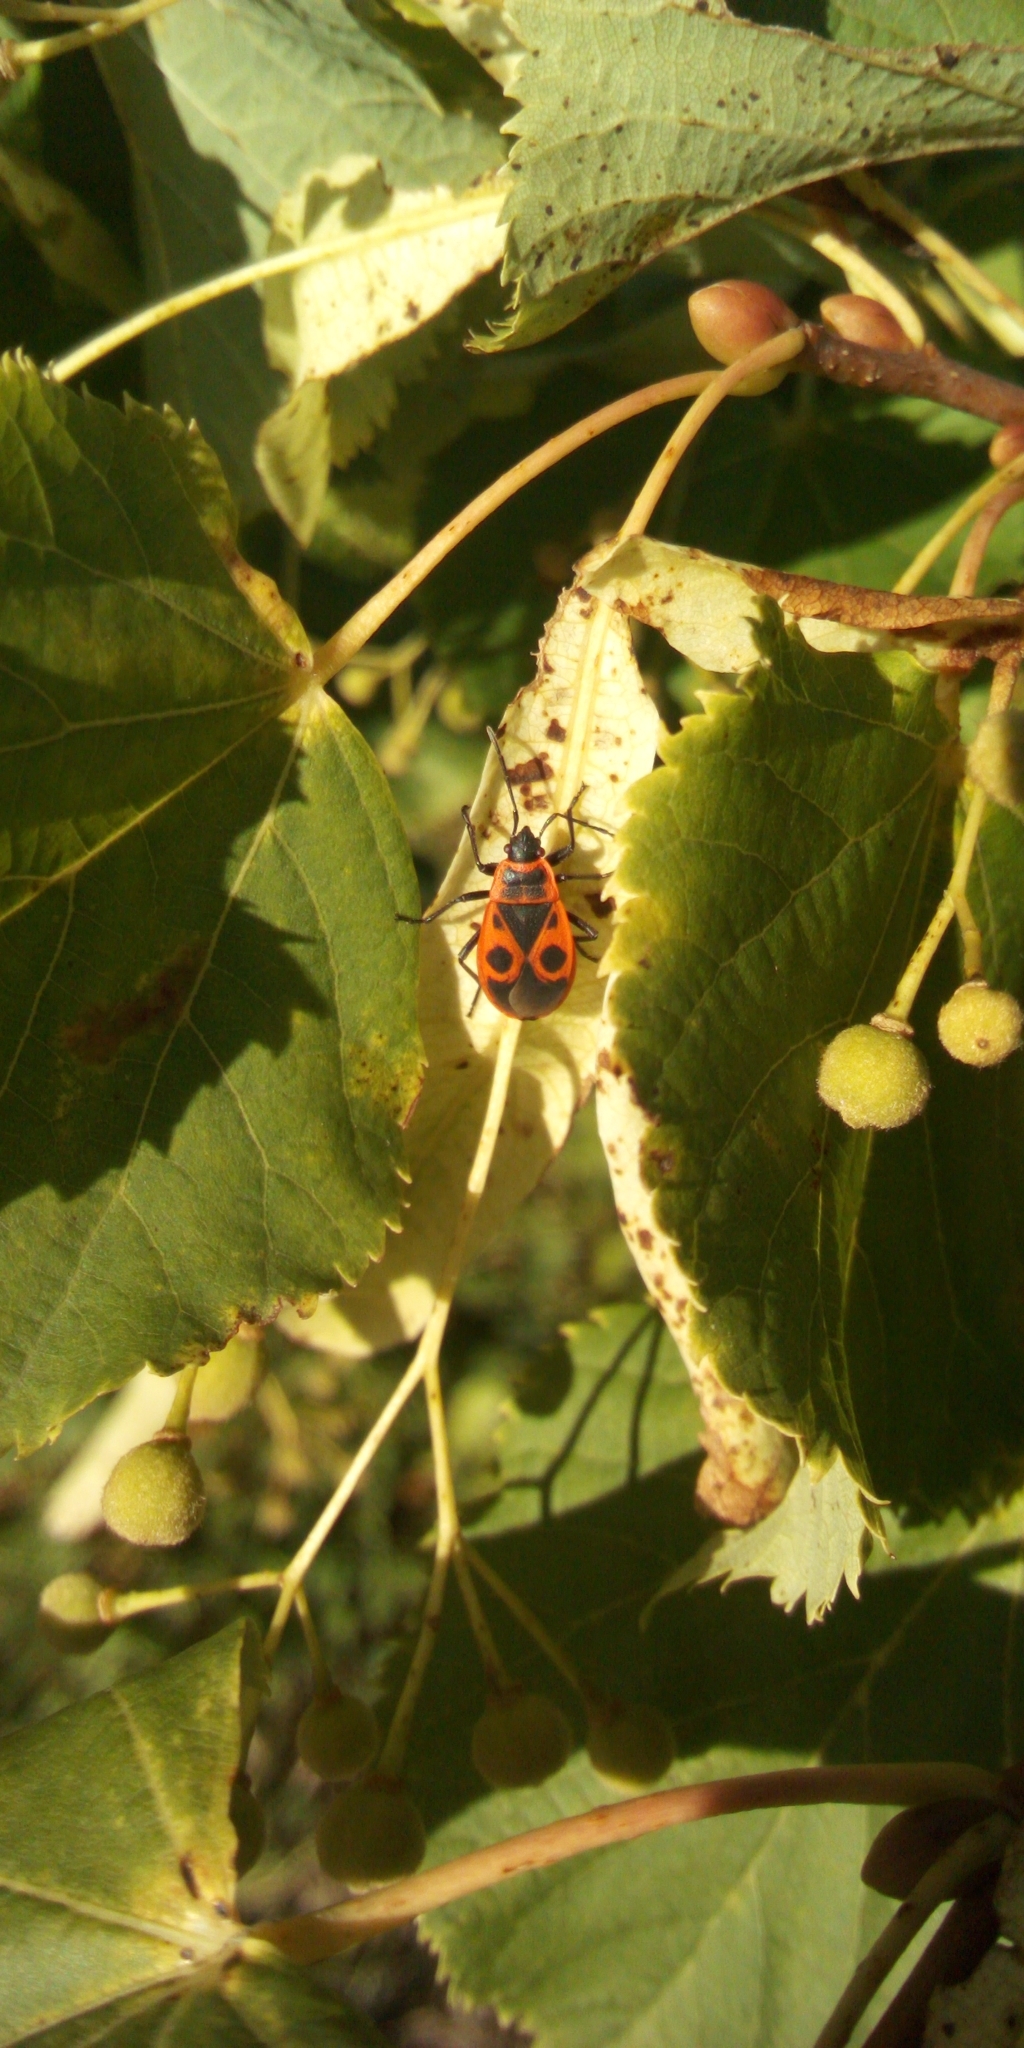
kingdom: Animalia
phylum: Arthropoda
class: Insecta
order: Hemiptera
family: Pyrrhocoridae
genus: Pyrrhocoris
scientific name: Pyrrhocoris apterus
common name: Firebug
